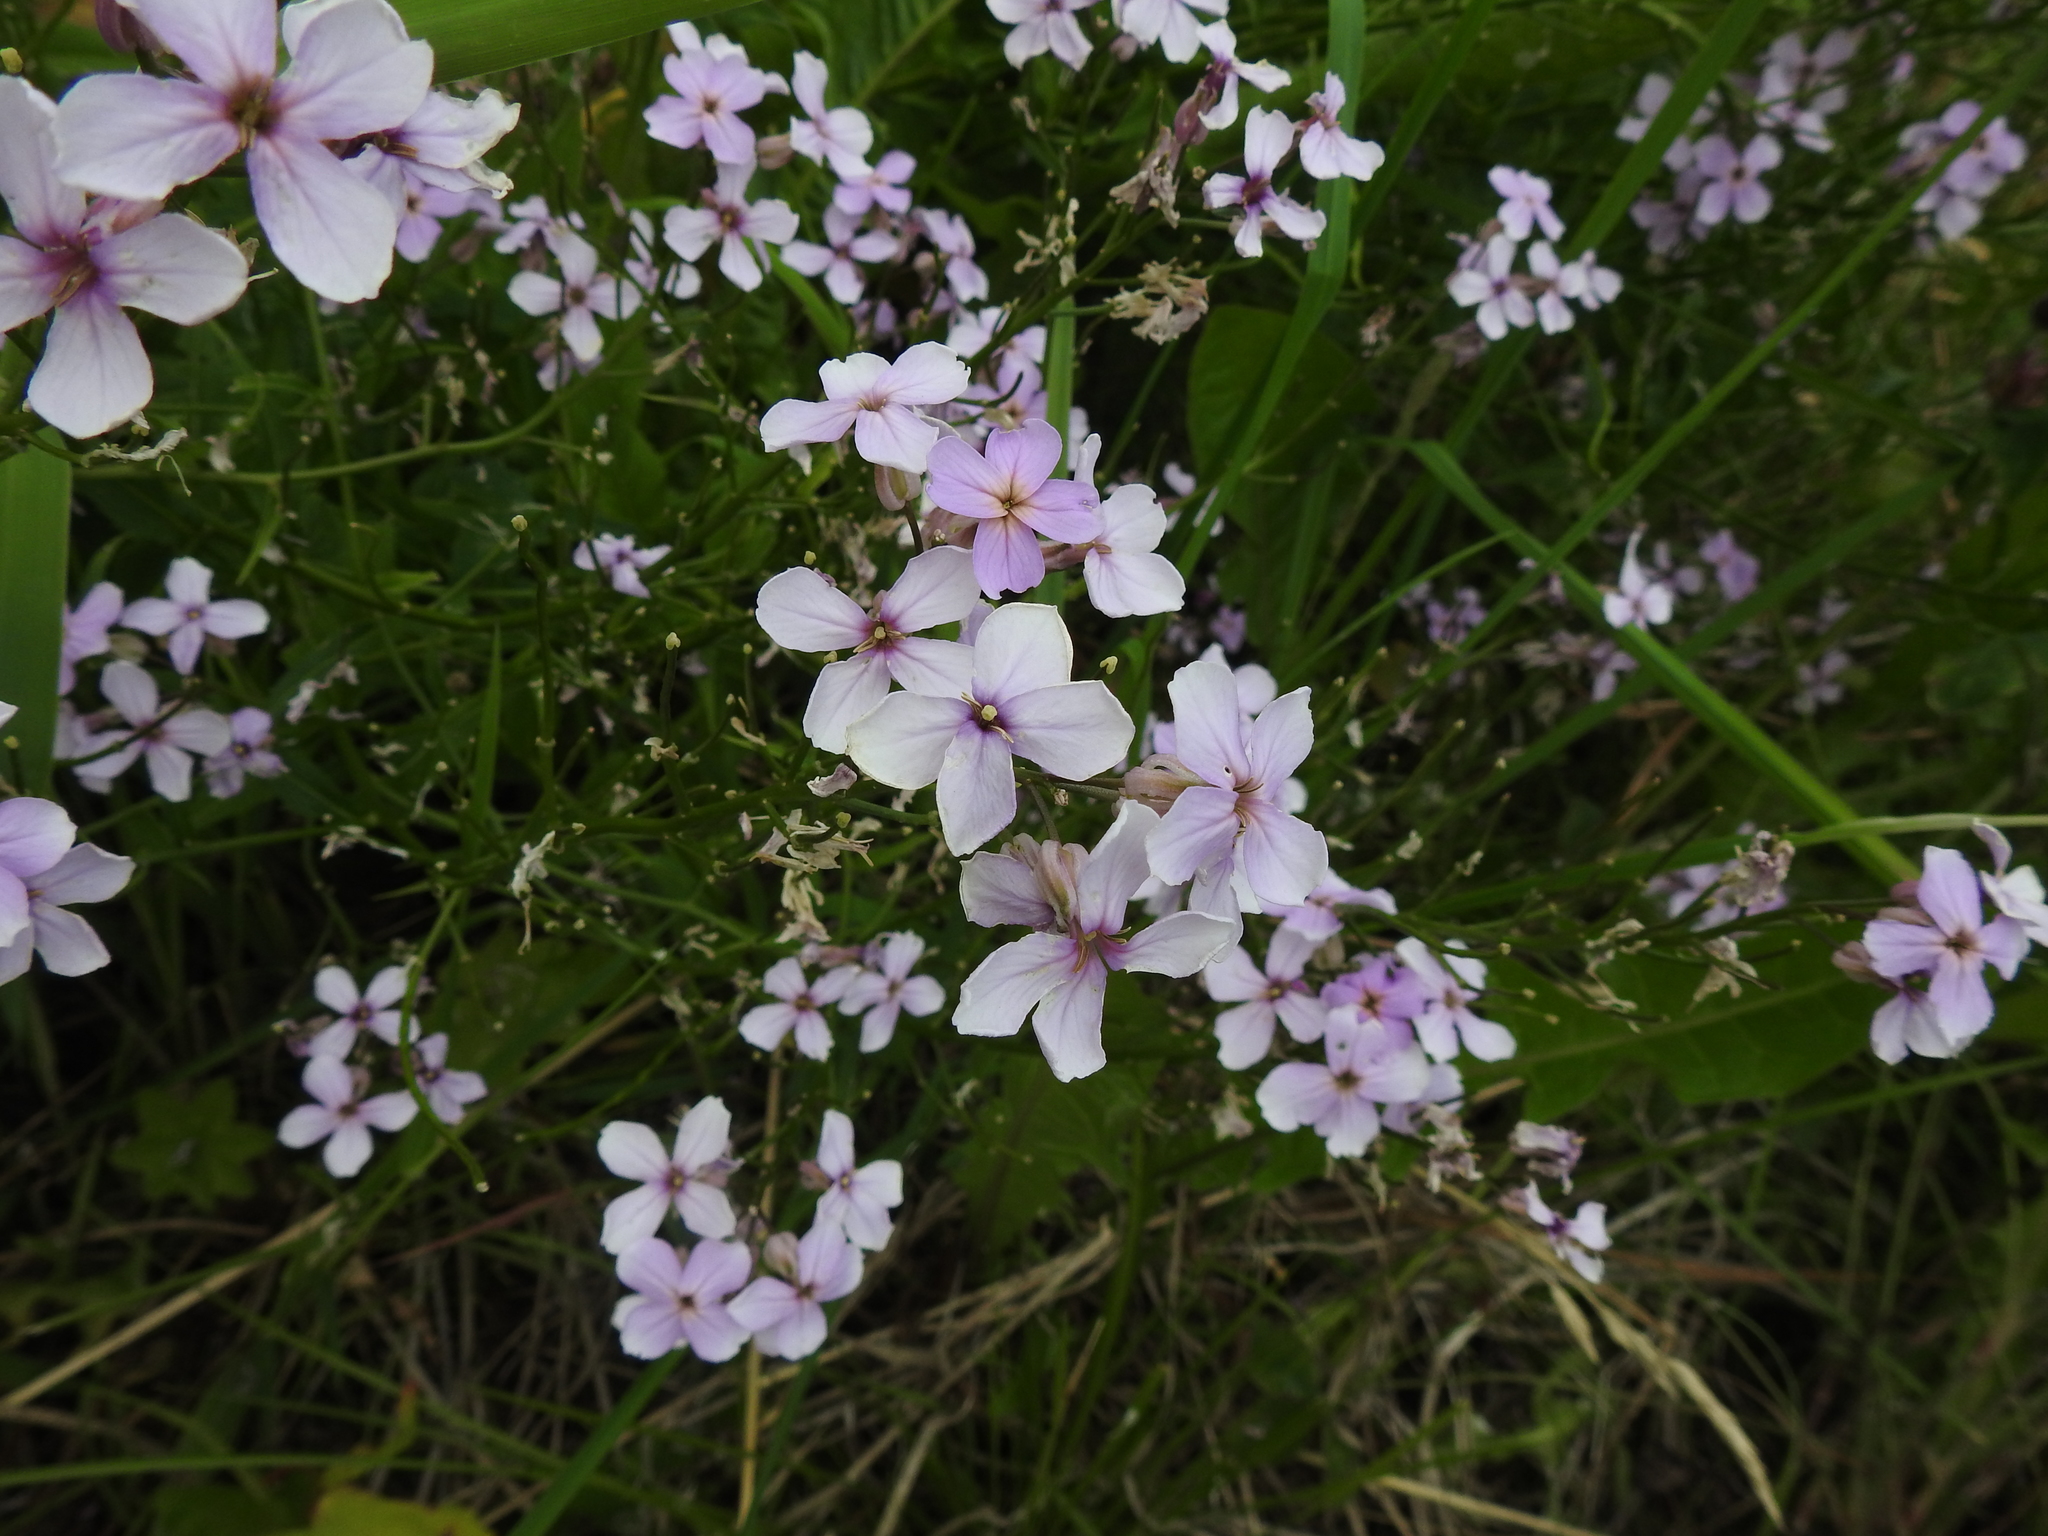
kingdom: Plantae
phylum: Tracheophyta
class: Magnoliopsida
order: Brassicales
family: Brassicaceae
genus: Hesperis
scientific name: Hesperis matronalis
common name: Dame's-violet
